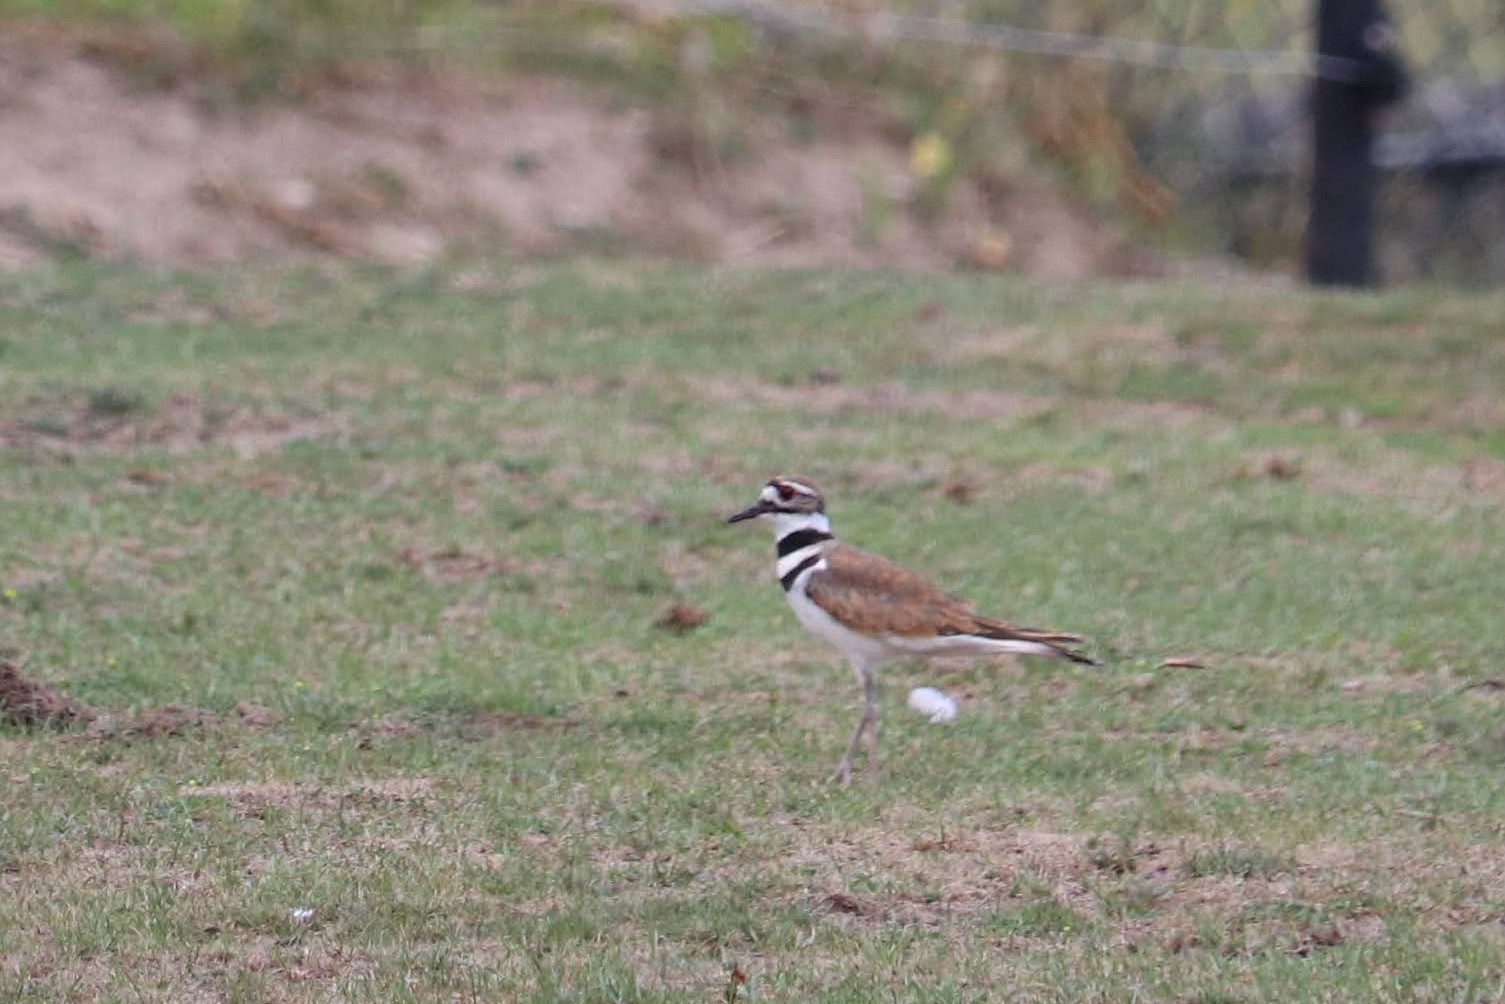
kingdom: Animalia
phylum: Chordata
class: Aves
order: Charadriiformes
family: Charadriidae
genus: Charadrius
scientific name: Charadrius vociferus
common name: Killdeer
